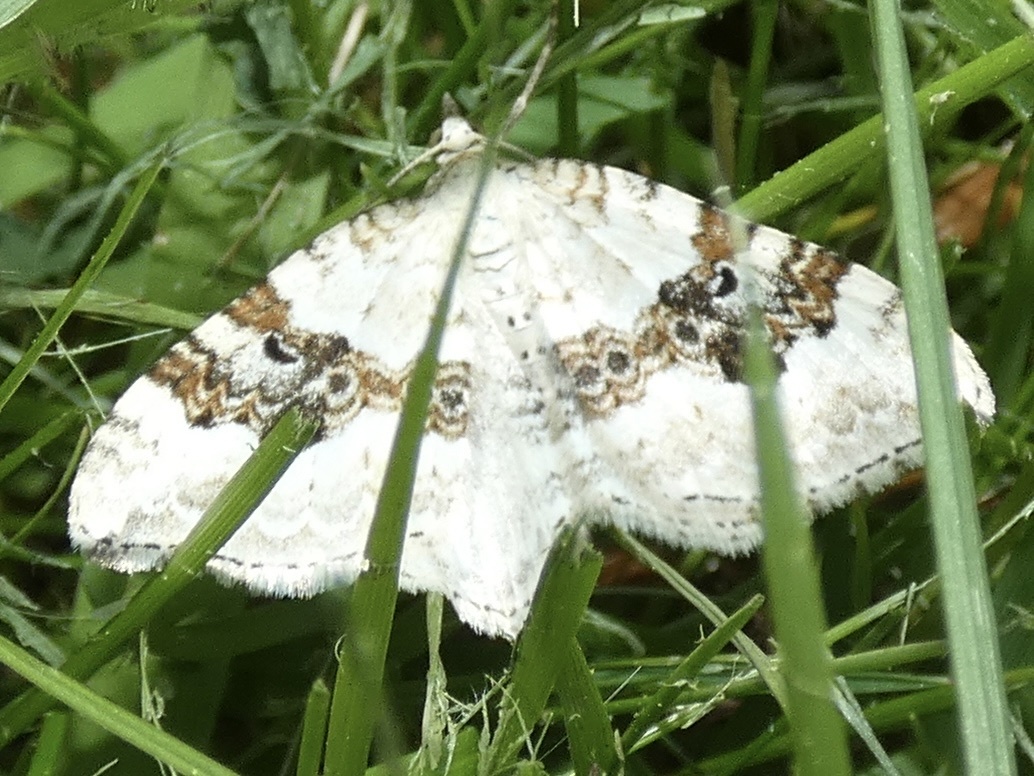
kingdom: Animalia
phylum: Arthropoda
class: Insecta
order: Lepidoptera
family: Geometridae
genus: Xanthorhoe
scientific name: Xanthorhoe montanata
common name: Silver-ground carpet
